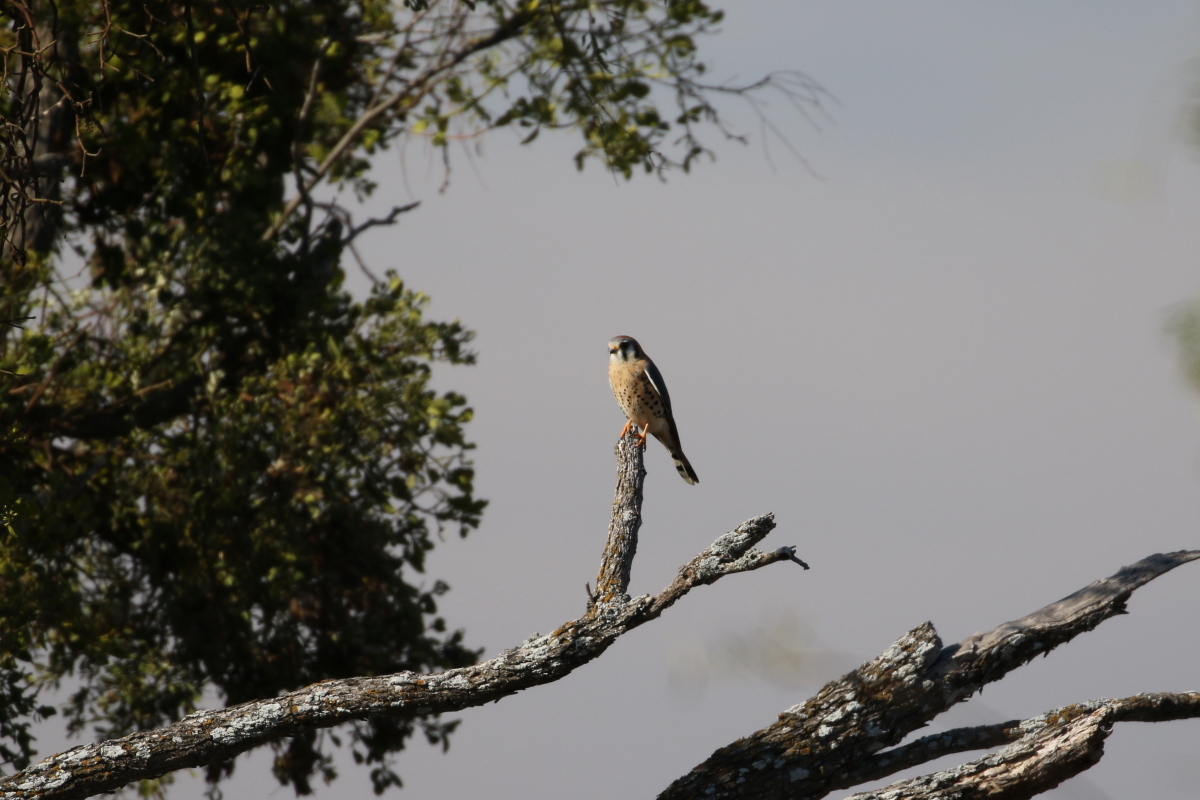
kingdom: Animalia
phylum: Chordata
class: Aves
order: Falconiformes
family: Falconidae
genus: Falco
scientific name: Falco sparverius
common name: American kestrel
